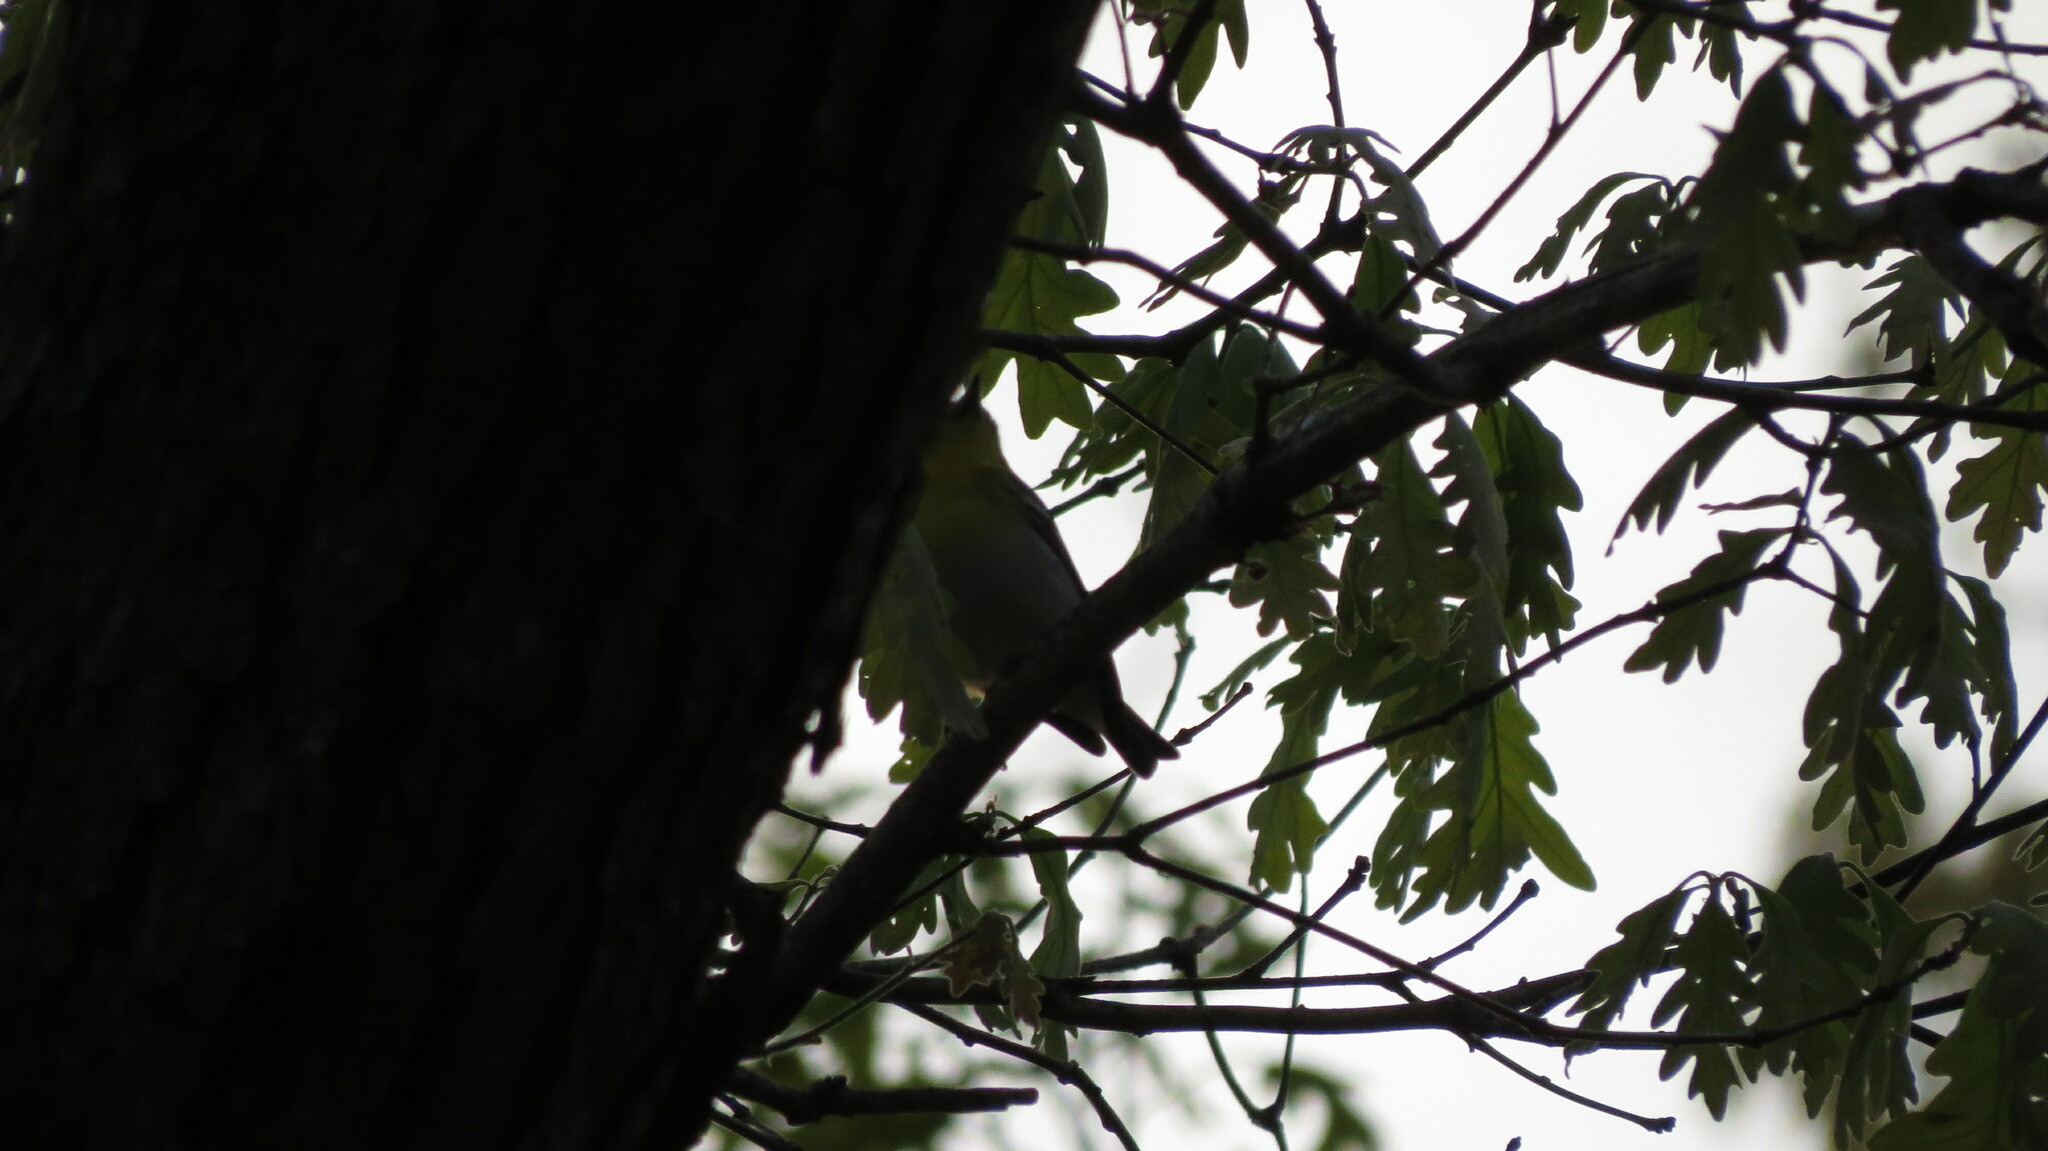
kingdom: Animalia
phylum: Chordata
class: Aves
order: Passeriformes
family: Vireonidae
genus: Vireo
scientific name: Vireo flavifrons
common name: Yellow-throated vireo
